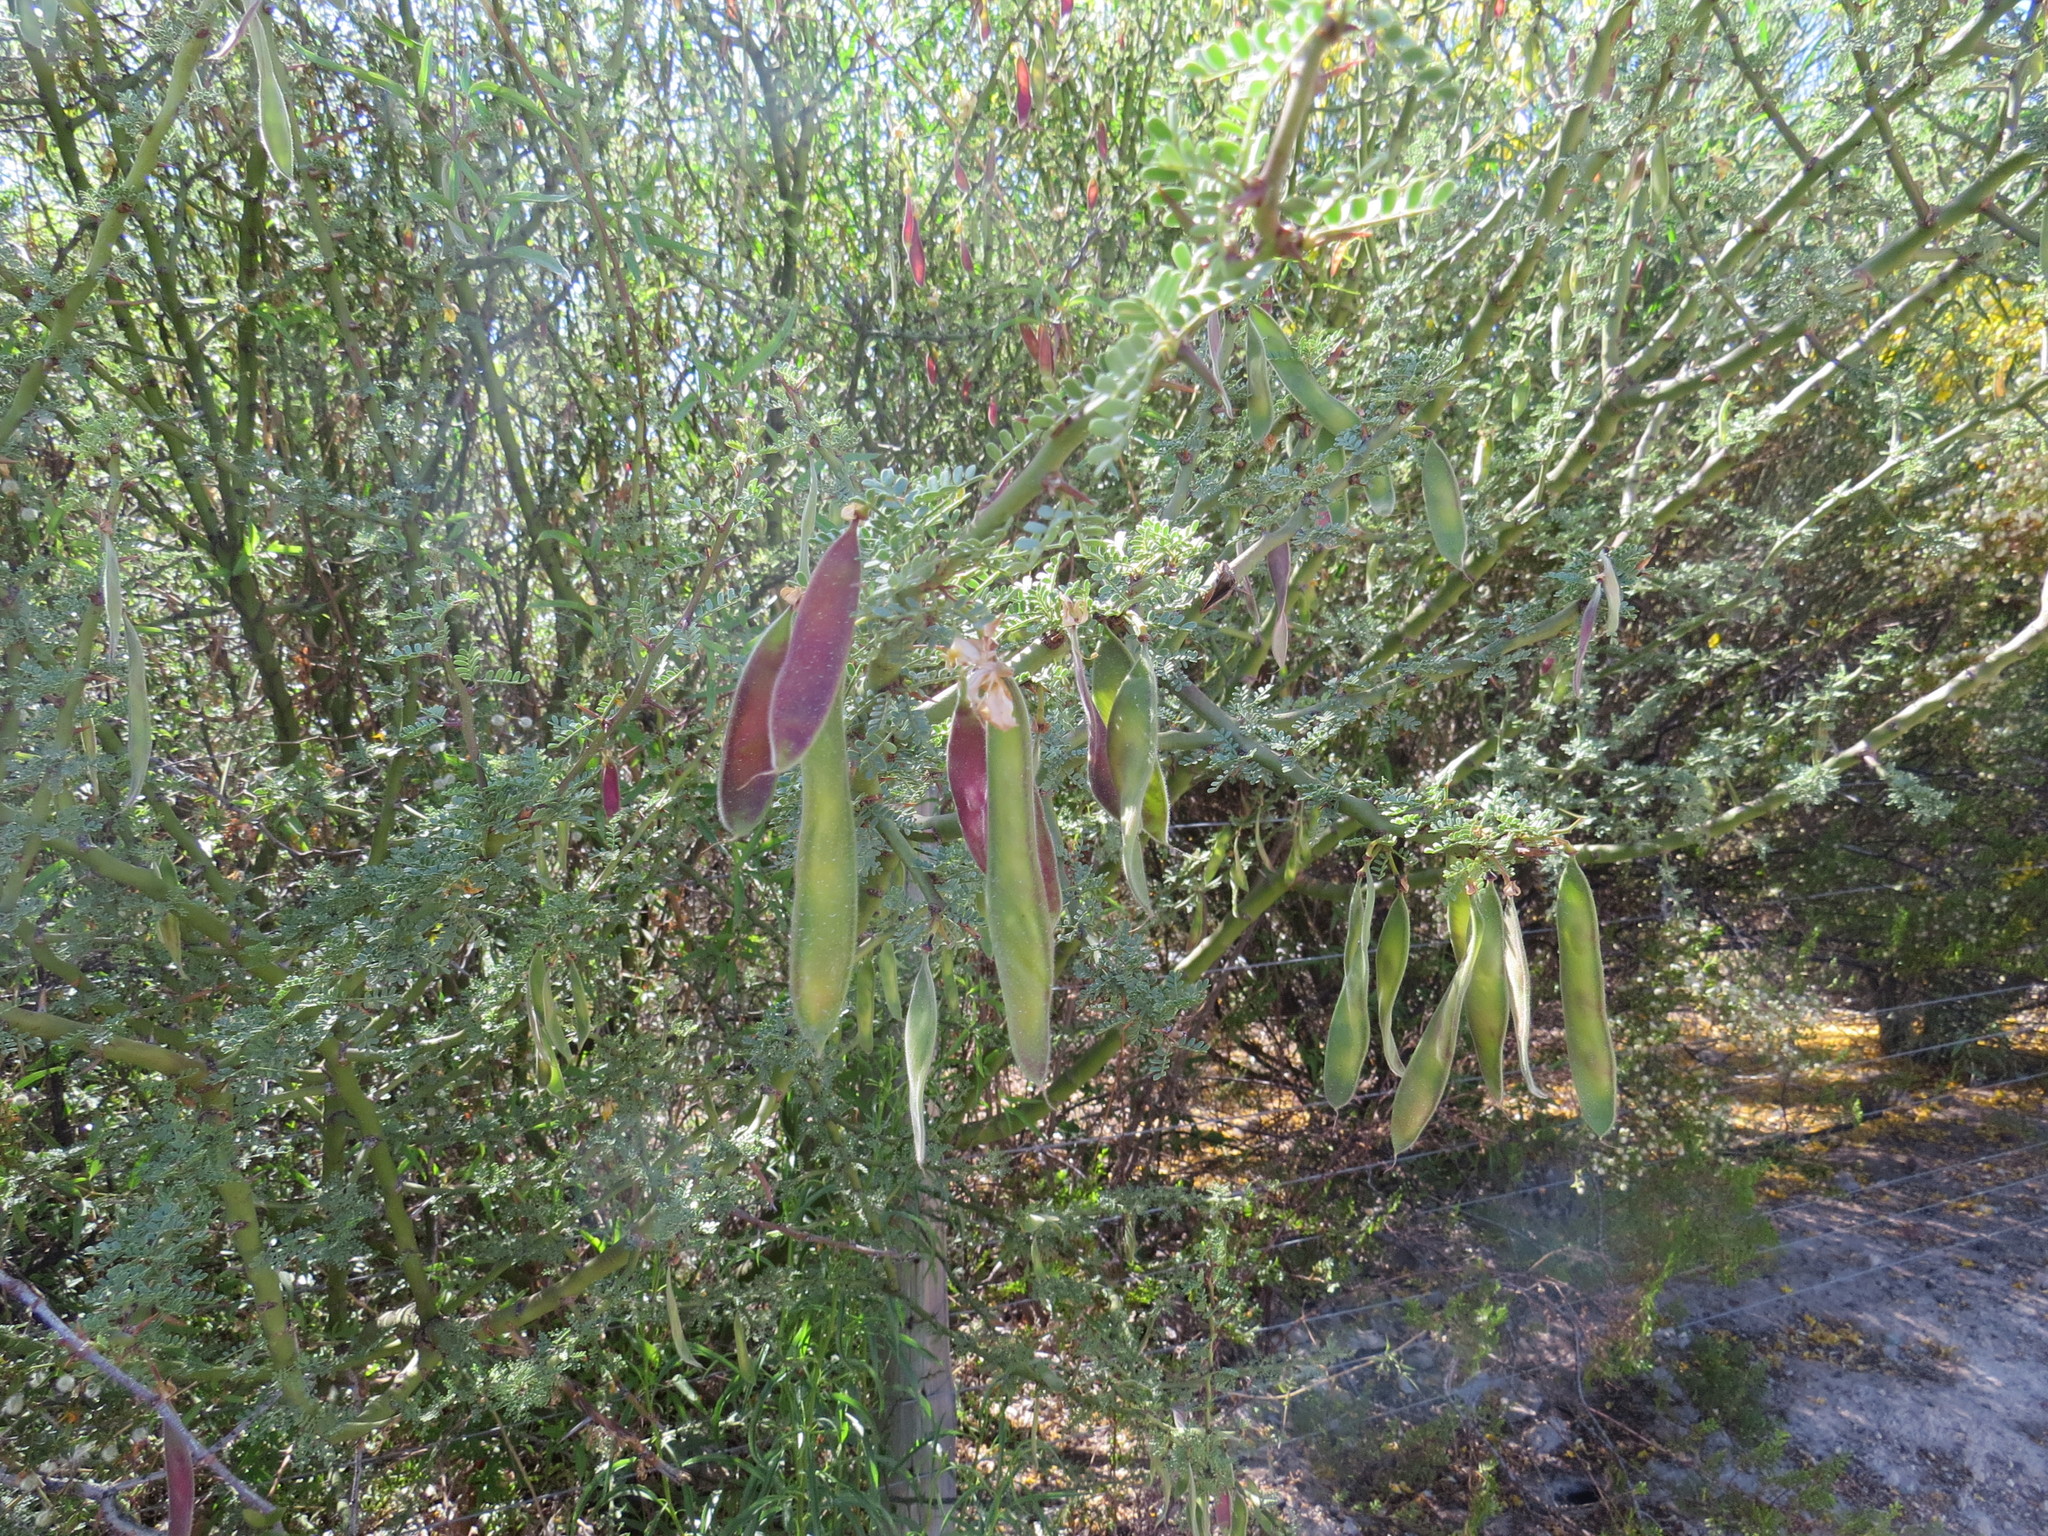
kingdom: Plantae
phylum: Tracheophyta
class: Magnoliopsida
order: Fabales
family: Fabaceae
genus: Parkinsonia
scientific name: Parkinsonia praecox
